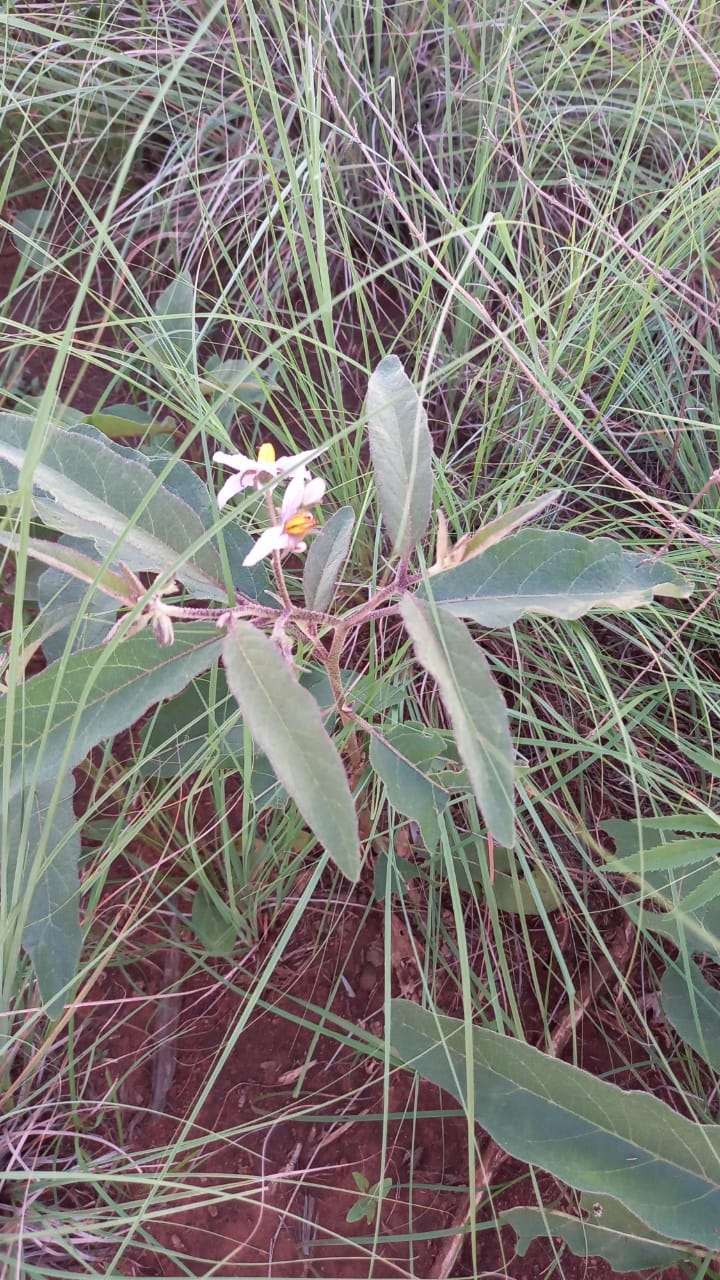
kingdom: Plantae
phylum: Tracheophyta
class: Magnoliopsida
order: Solanales
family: Solanaceae
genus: Solanum
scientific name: Solanum campylacanthum
